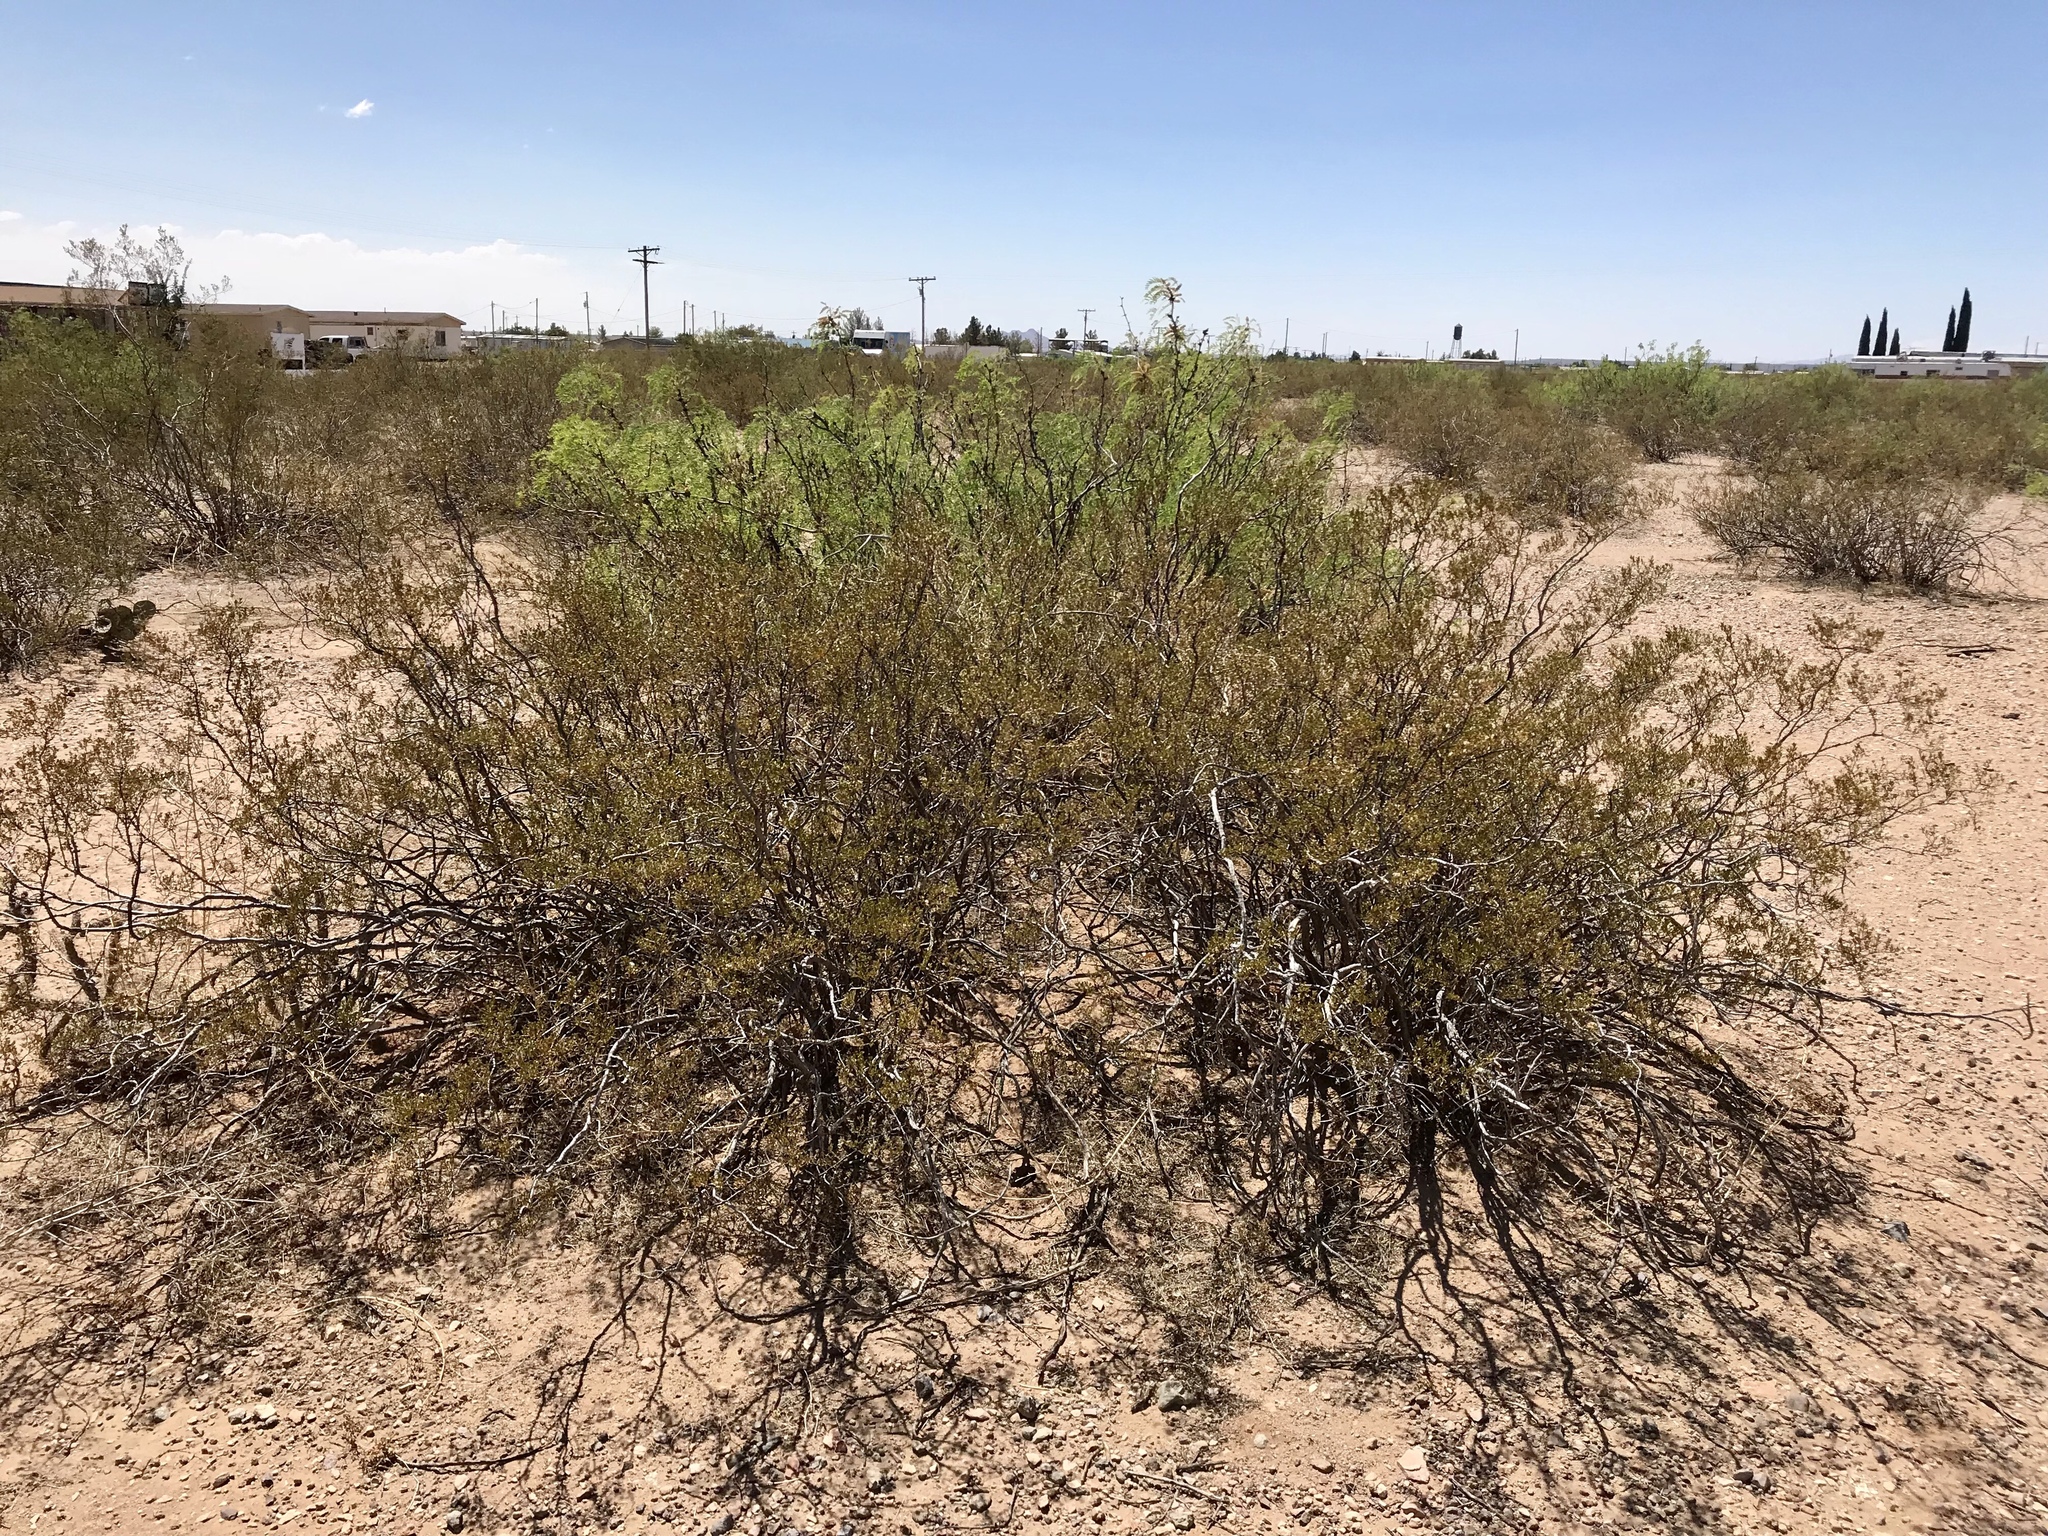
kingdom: Plantae
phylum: Tracheophyta
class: Magnoliopsida
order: Zygophyllales
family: Zygophyllaceae
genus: Larrea
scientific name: Larrea tridentata
